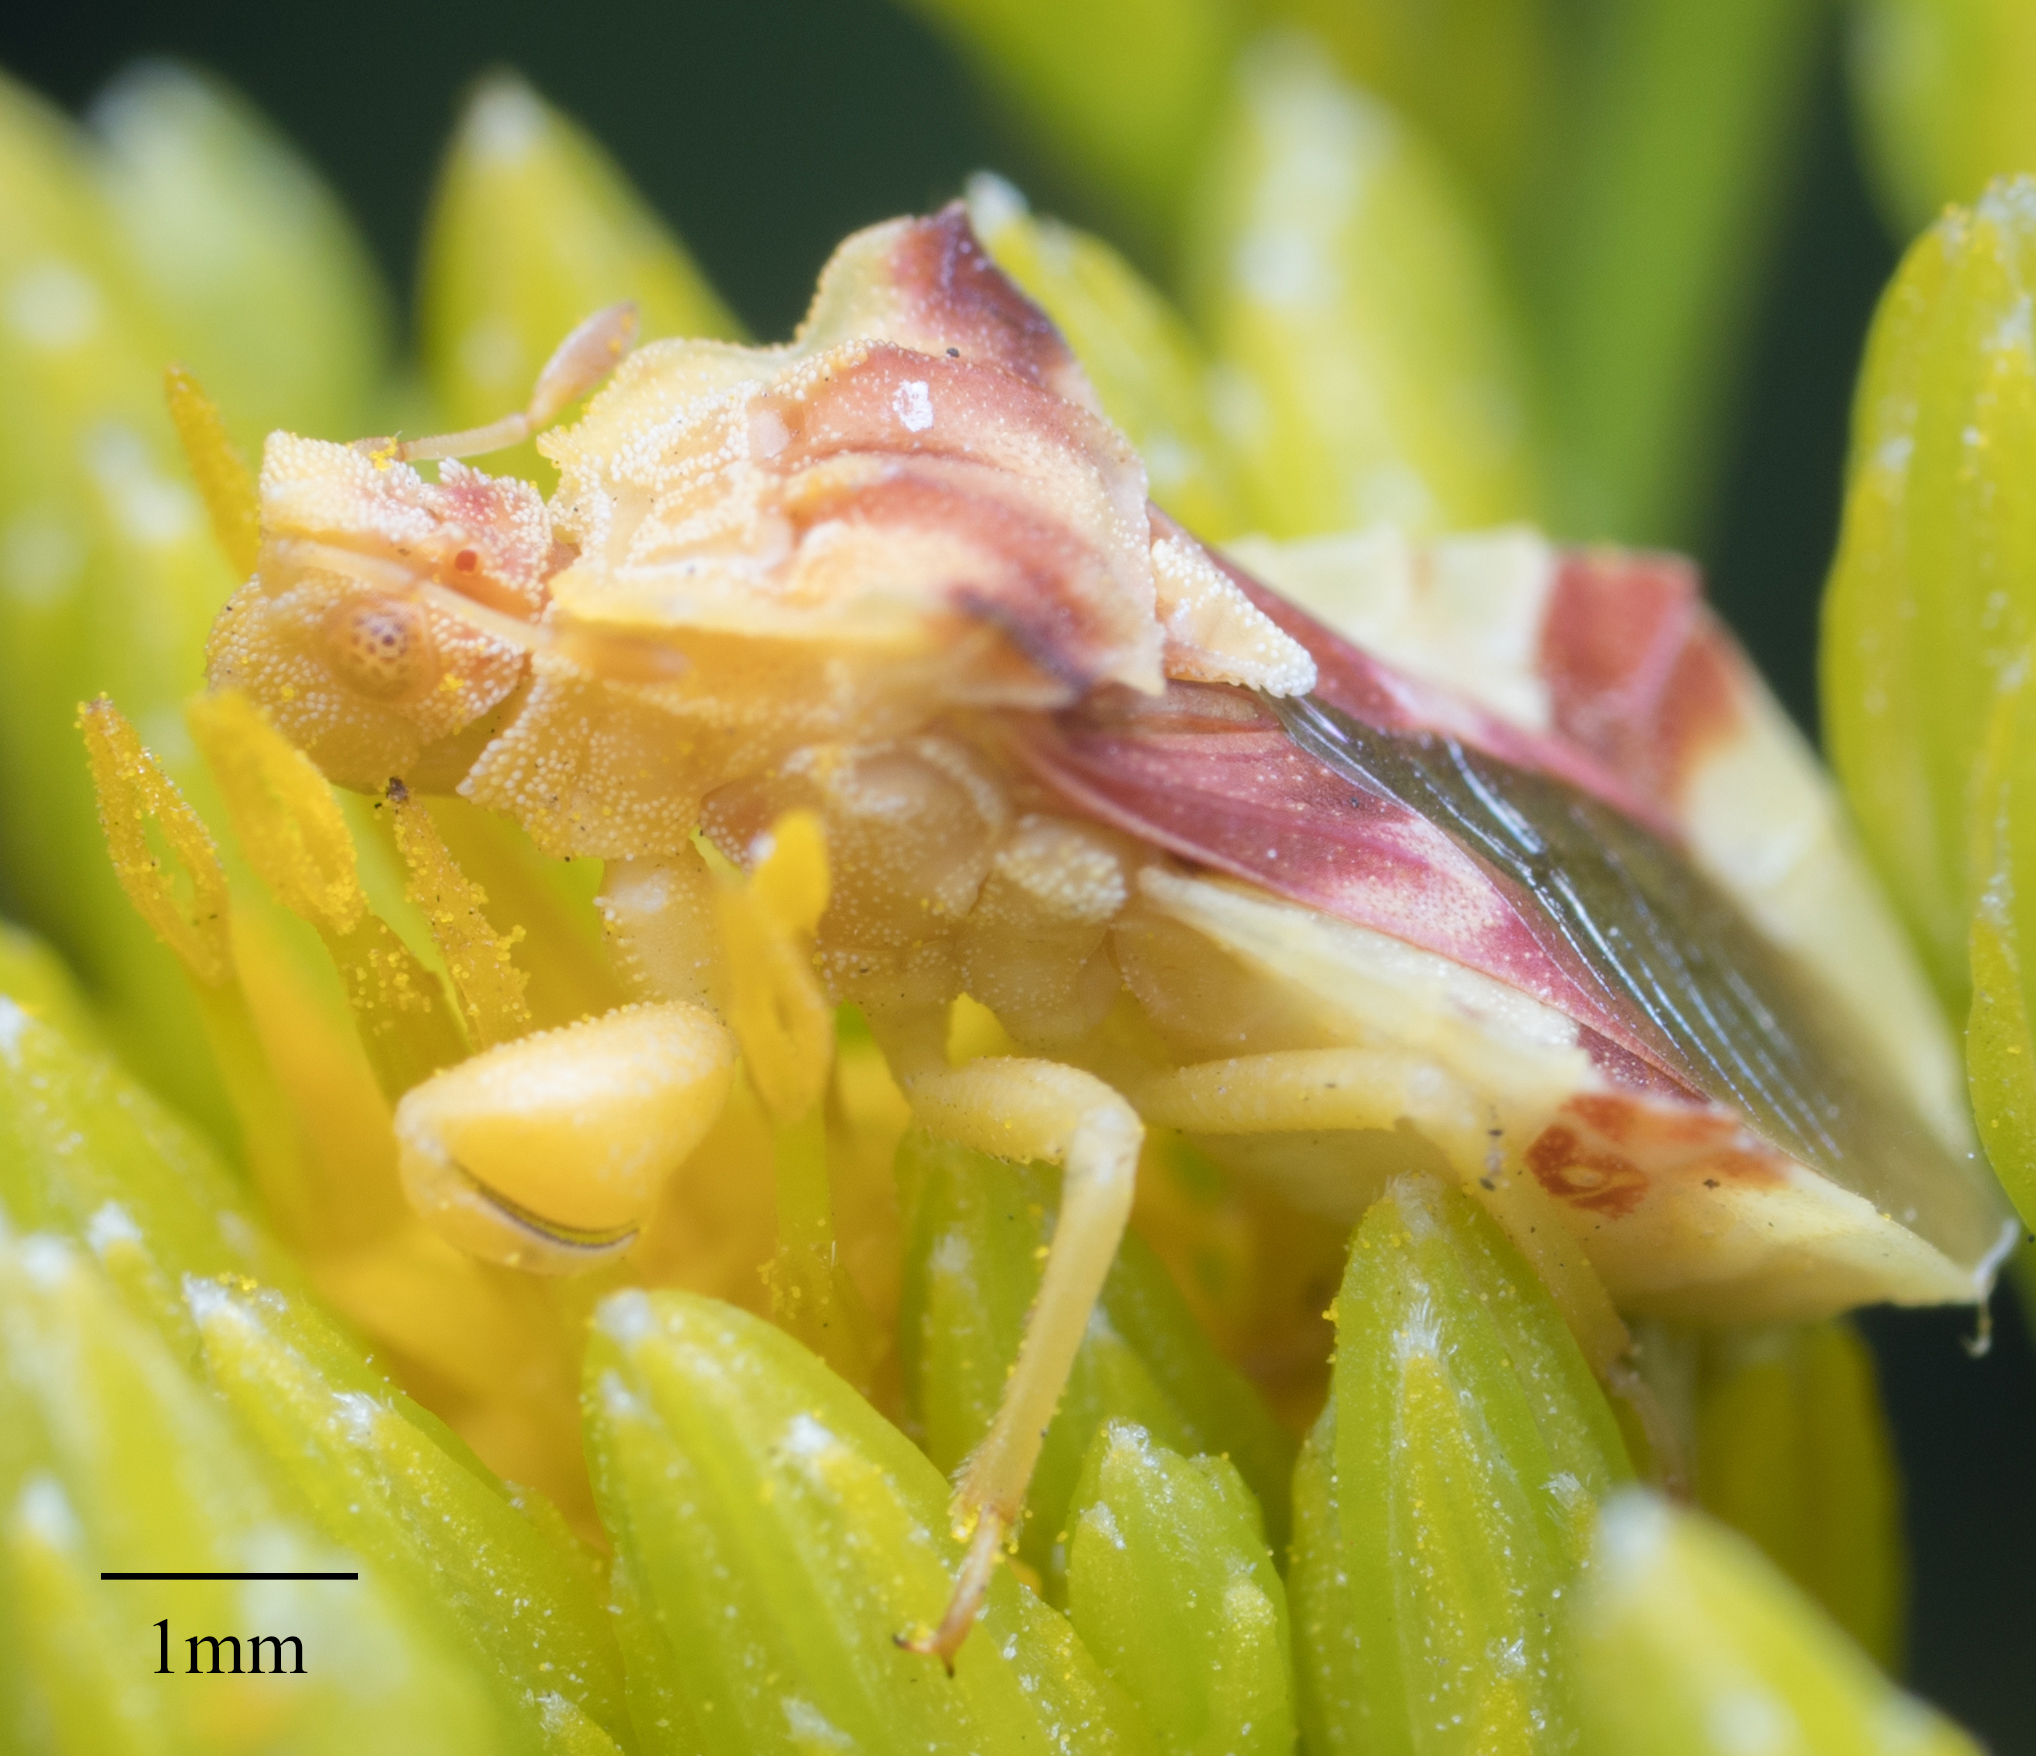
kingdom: Animalia
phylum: Arthropoda
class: Insecta
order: Hemiptera
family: Reduviidae
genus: Phymata
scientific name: Phymata pacifica
